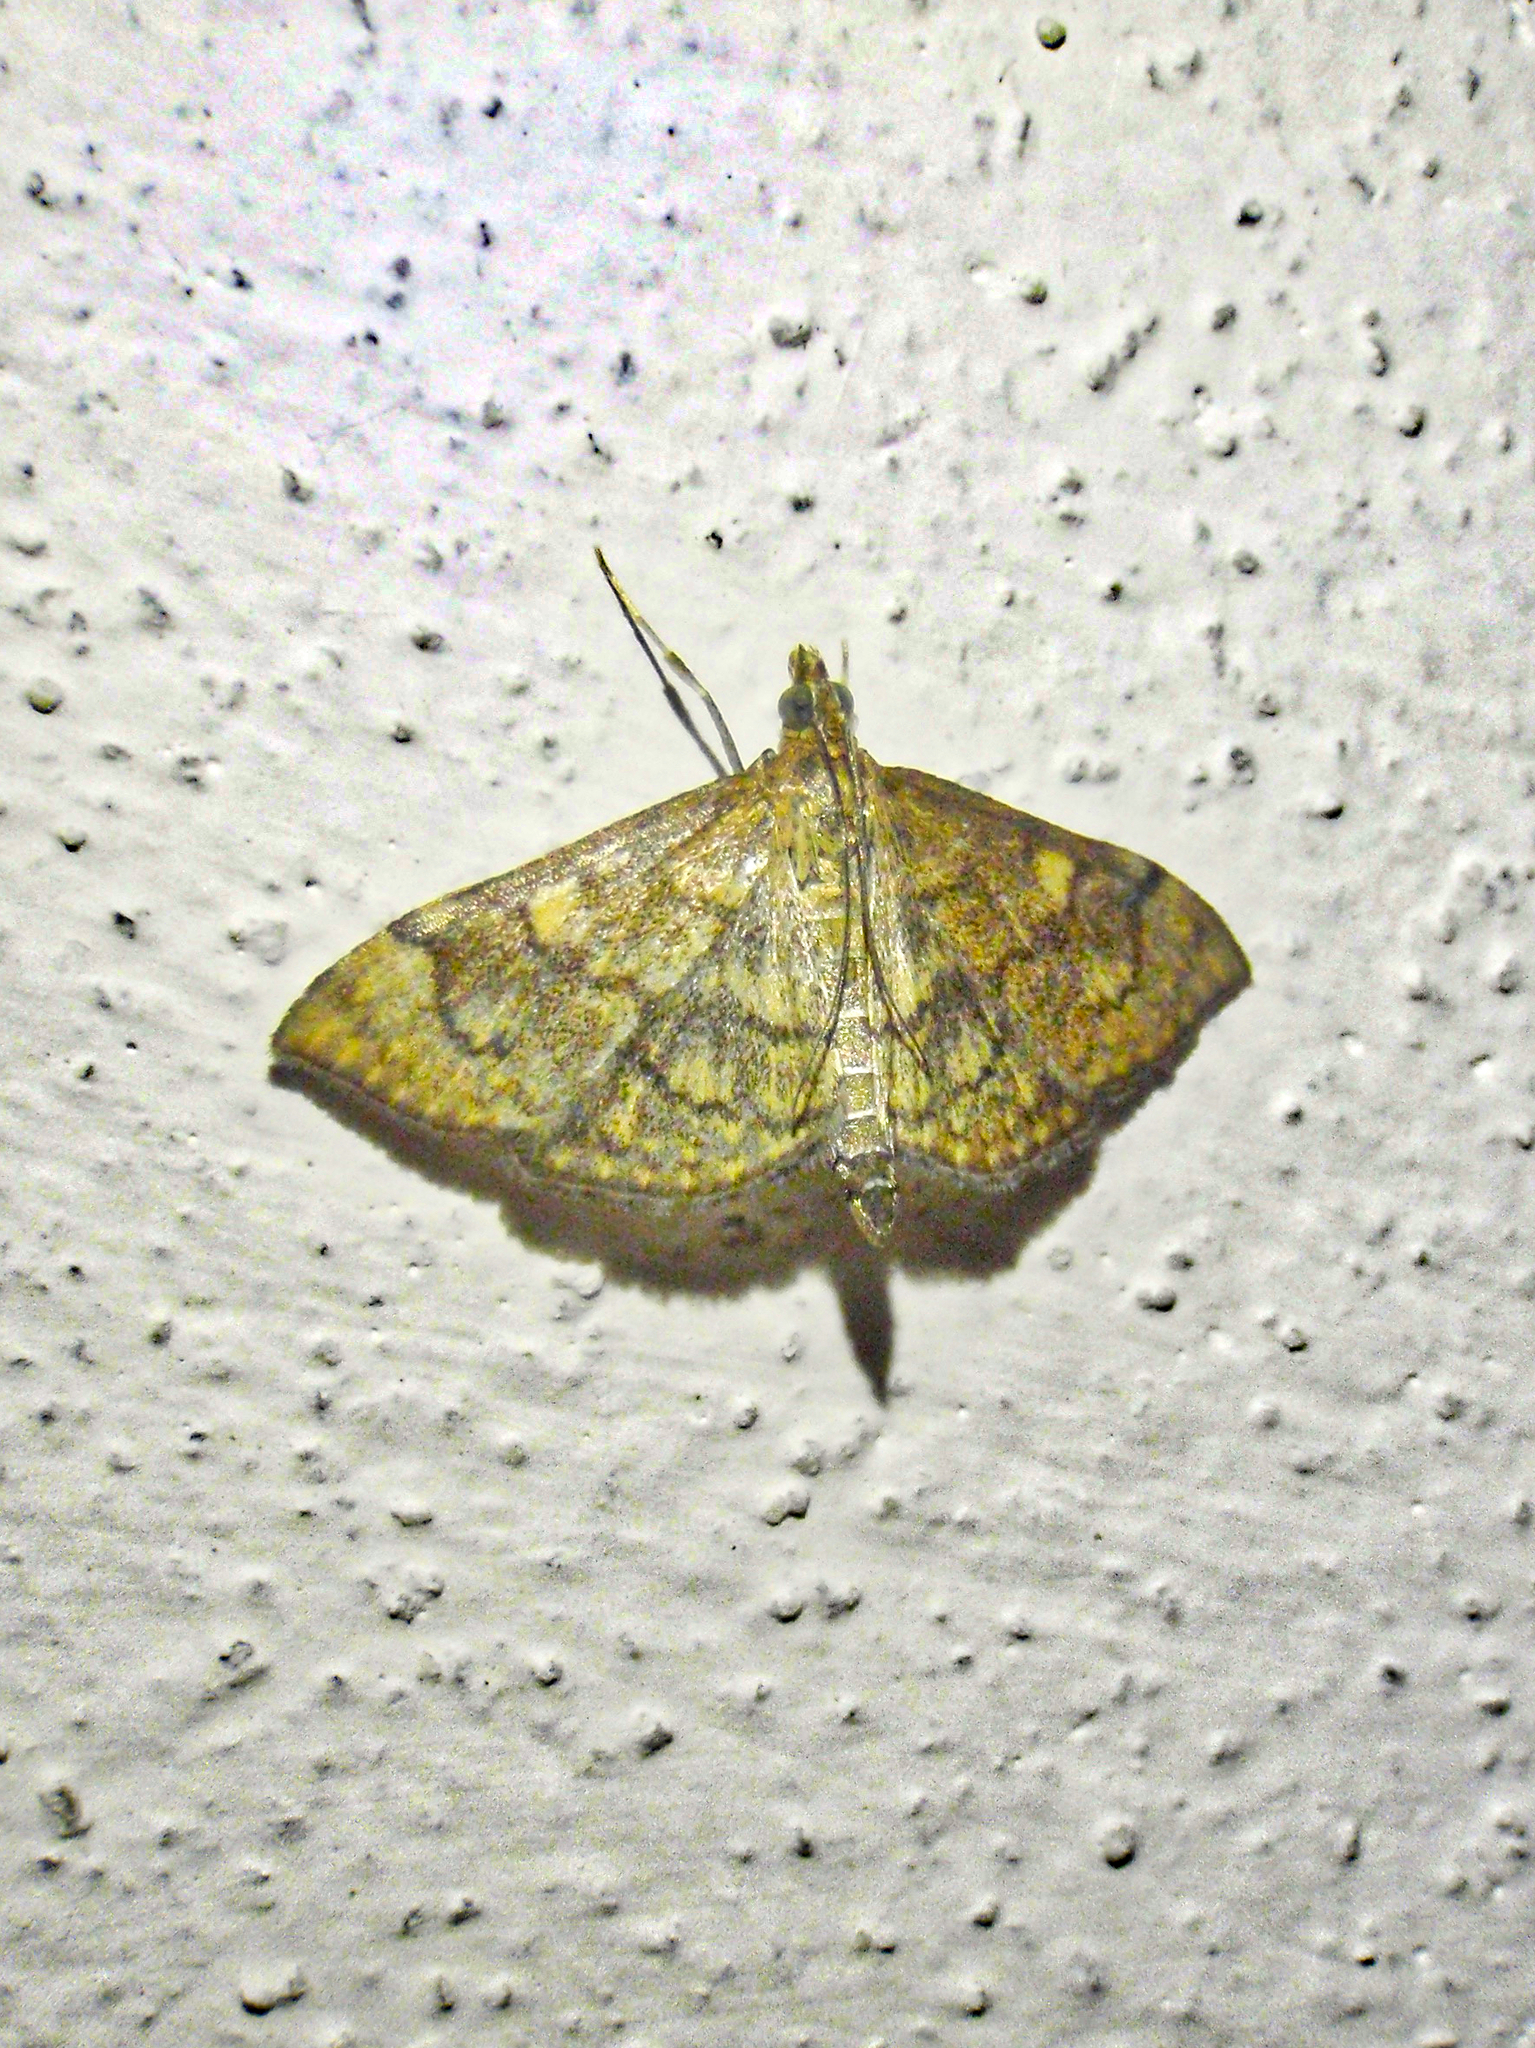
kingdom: Animalia
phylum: Arthropoda
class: Insecta
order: Lepidoptera
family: Crambidae
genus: Anania
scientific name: Anania verbascalis
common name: Golden pearl
